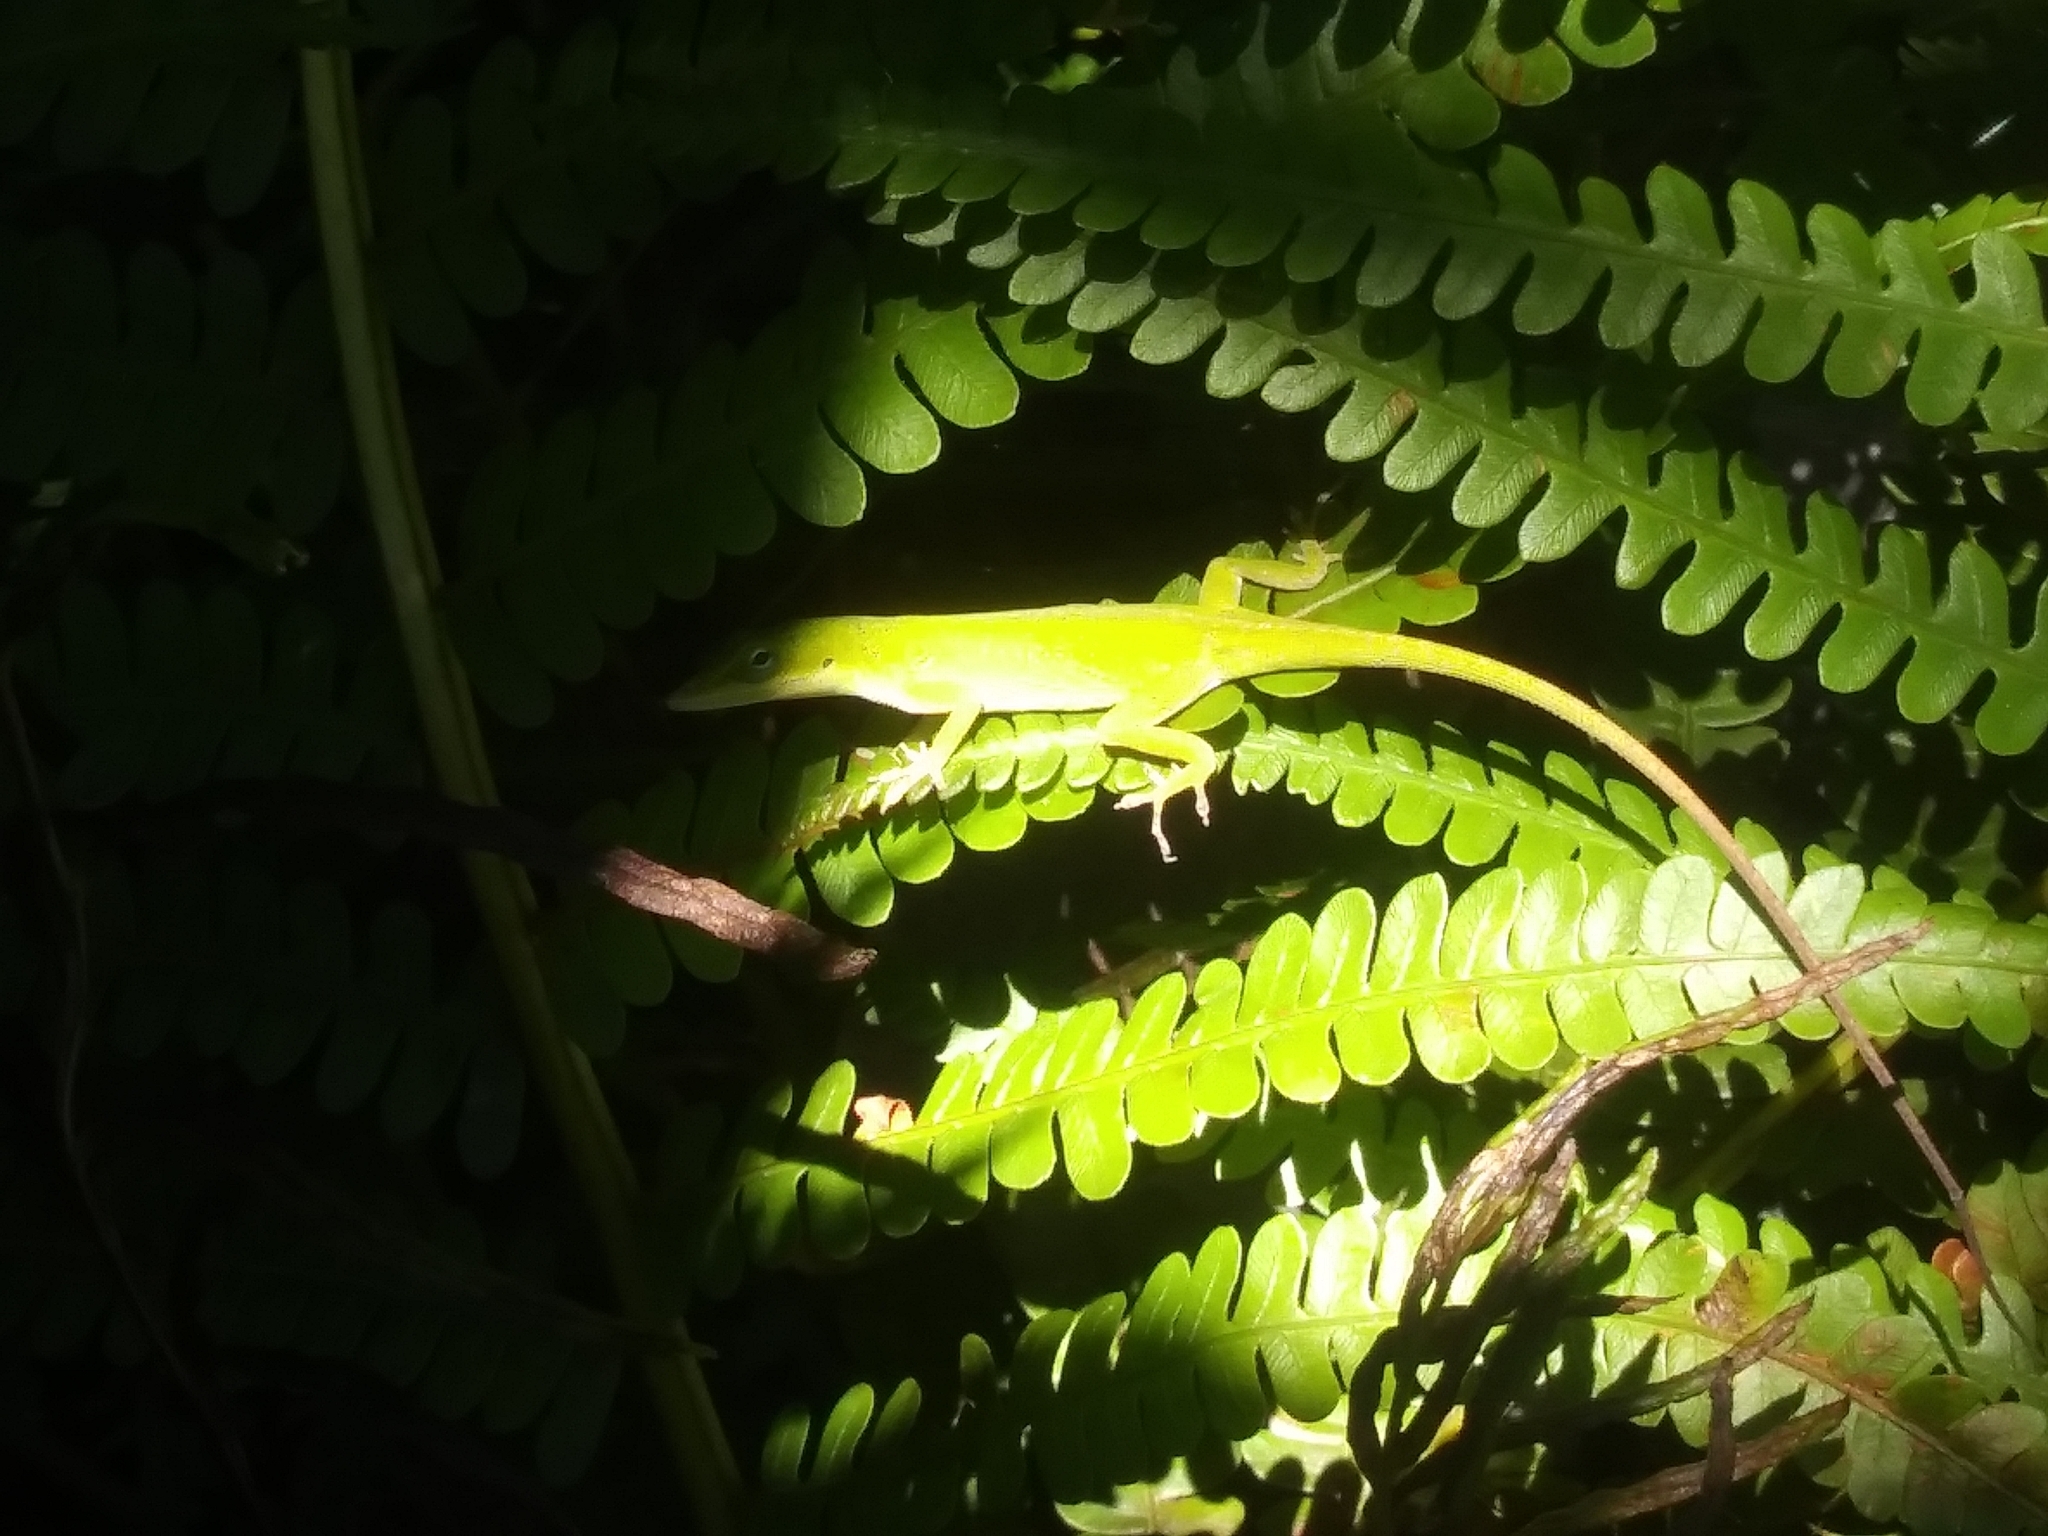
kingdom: Animalia
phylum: Chordata
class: Squamata
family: Dactyloidae
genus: Anolis
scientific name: Anolis carolinensis
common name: Green anole
